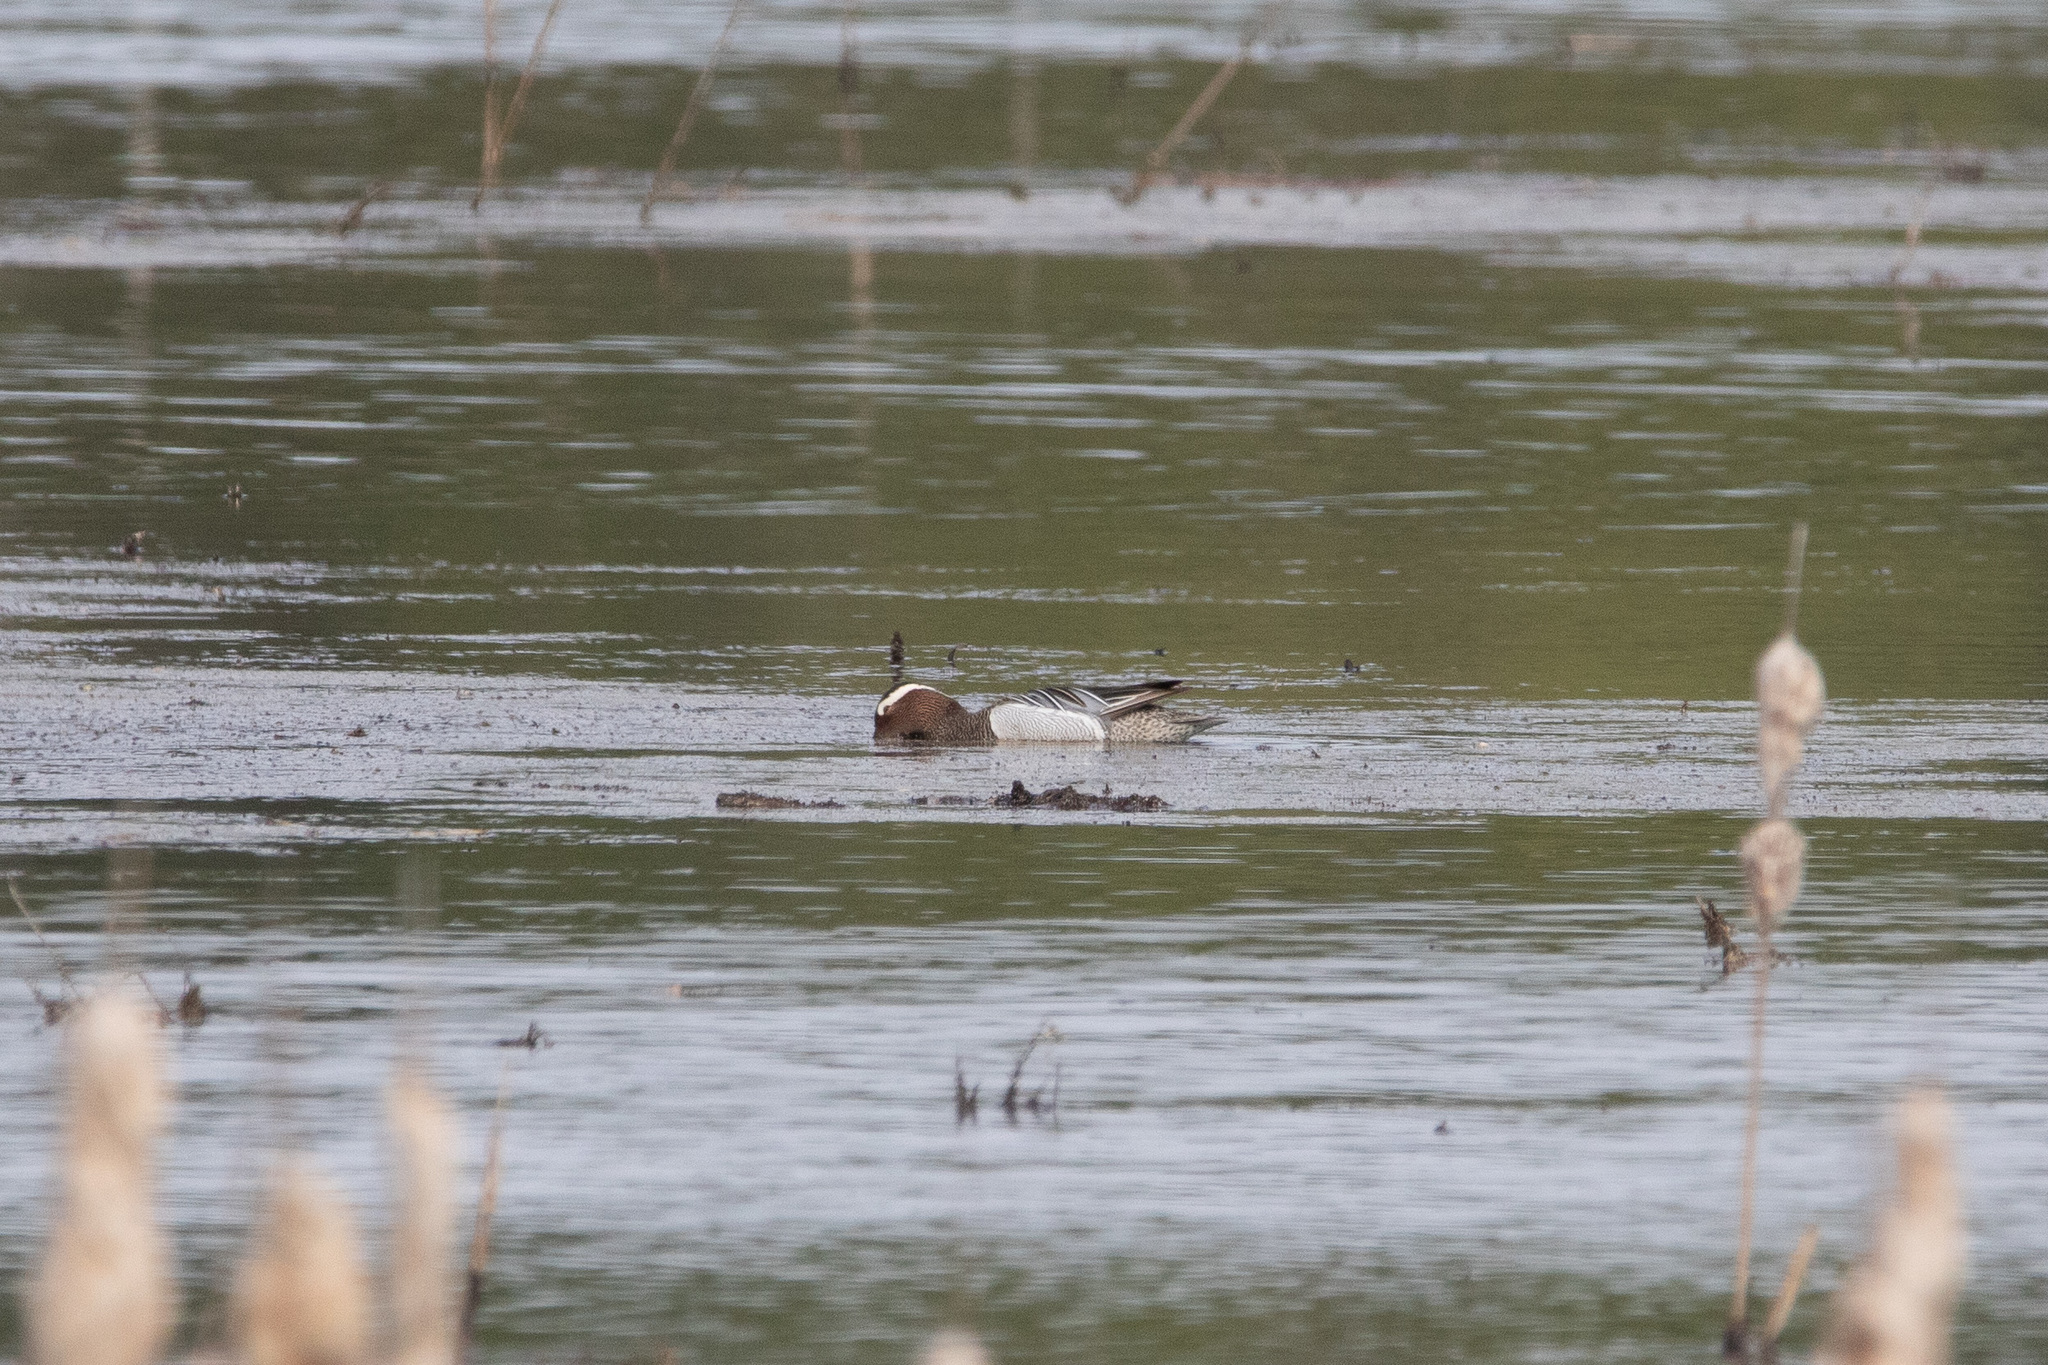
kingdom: Animalia
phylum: Chordata
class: Aves
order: Anseriformes
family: Anatidae
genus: Spatula
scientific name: Spatula querquedula
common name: Garganey
